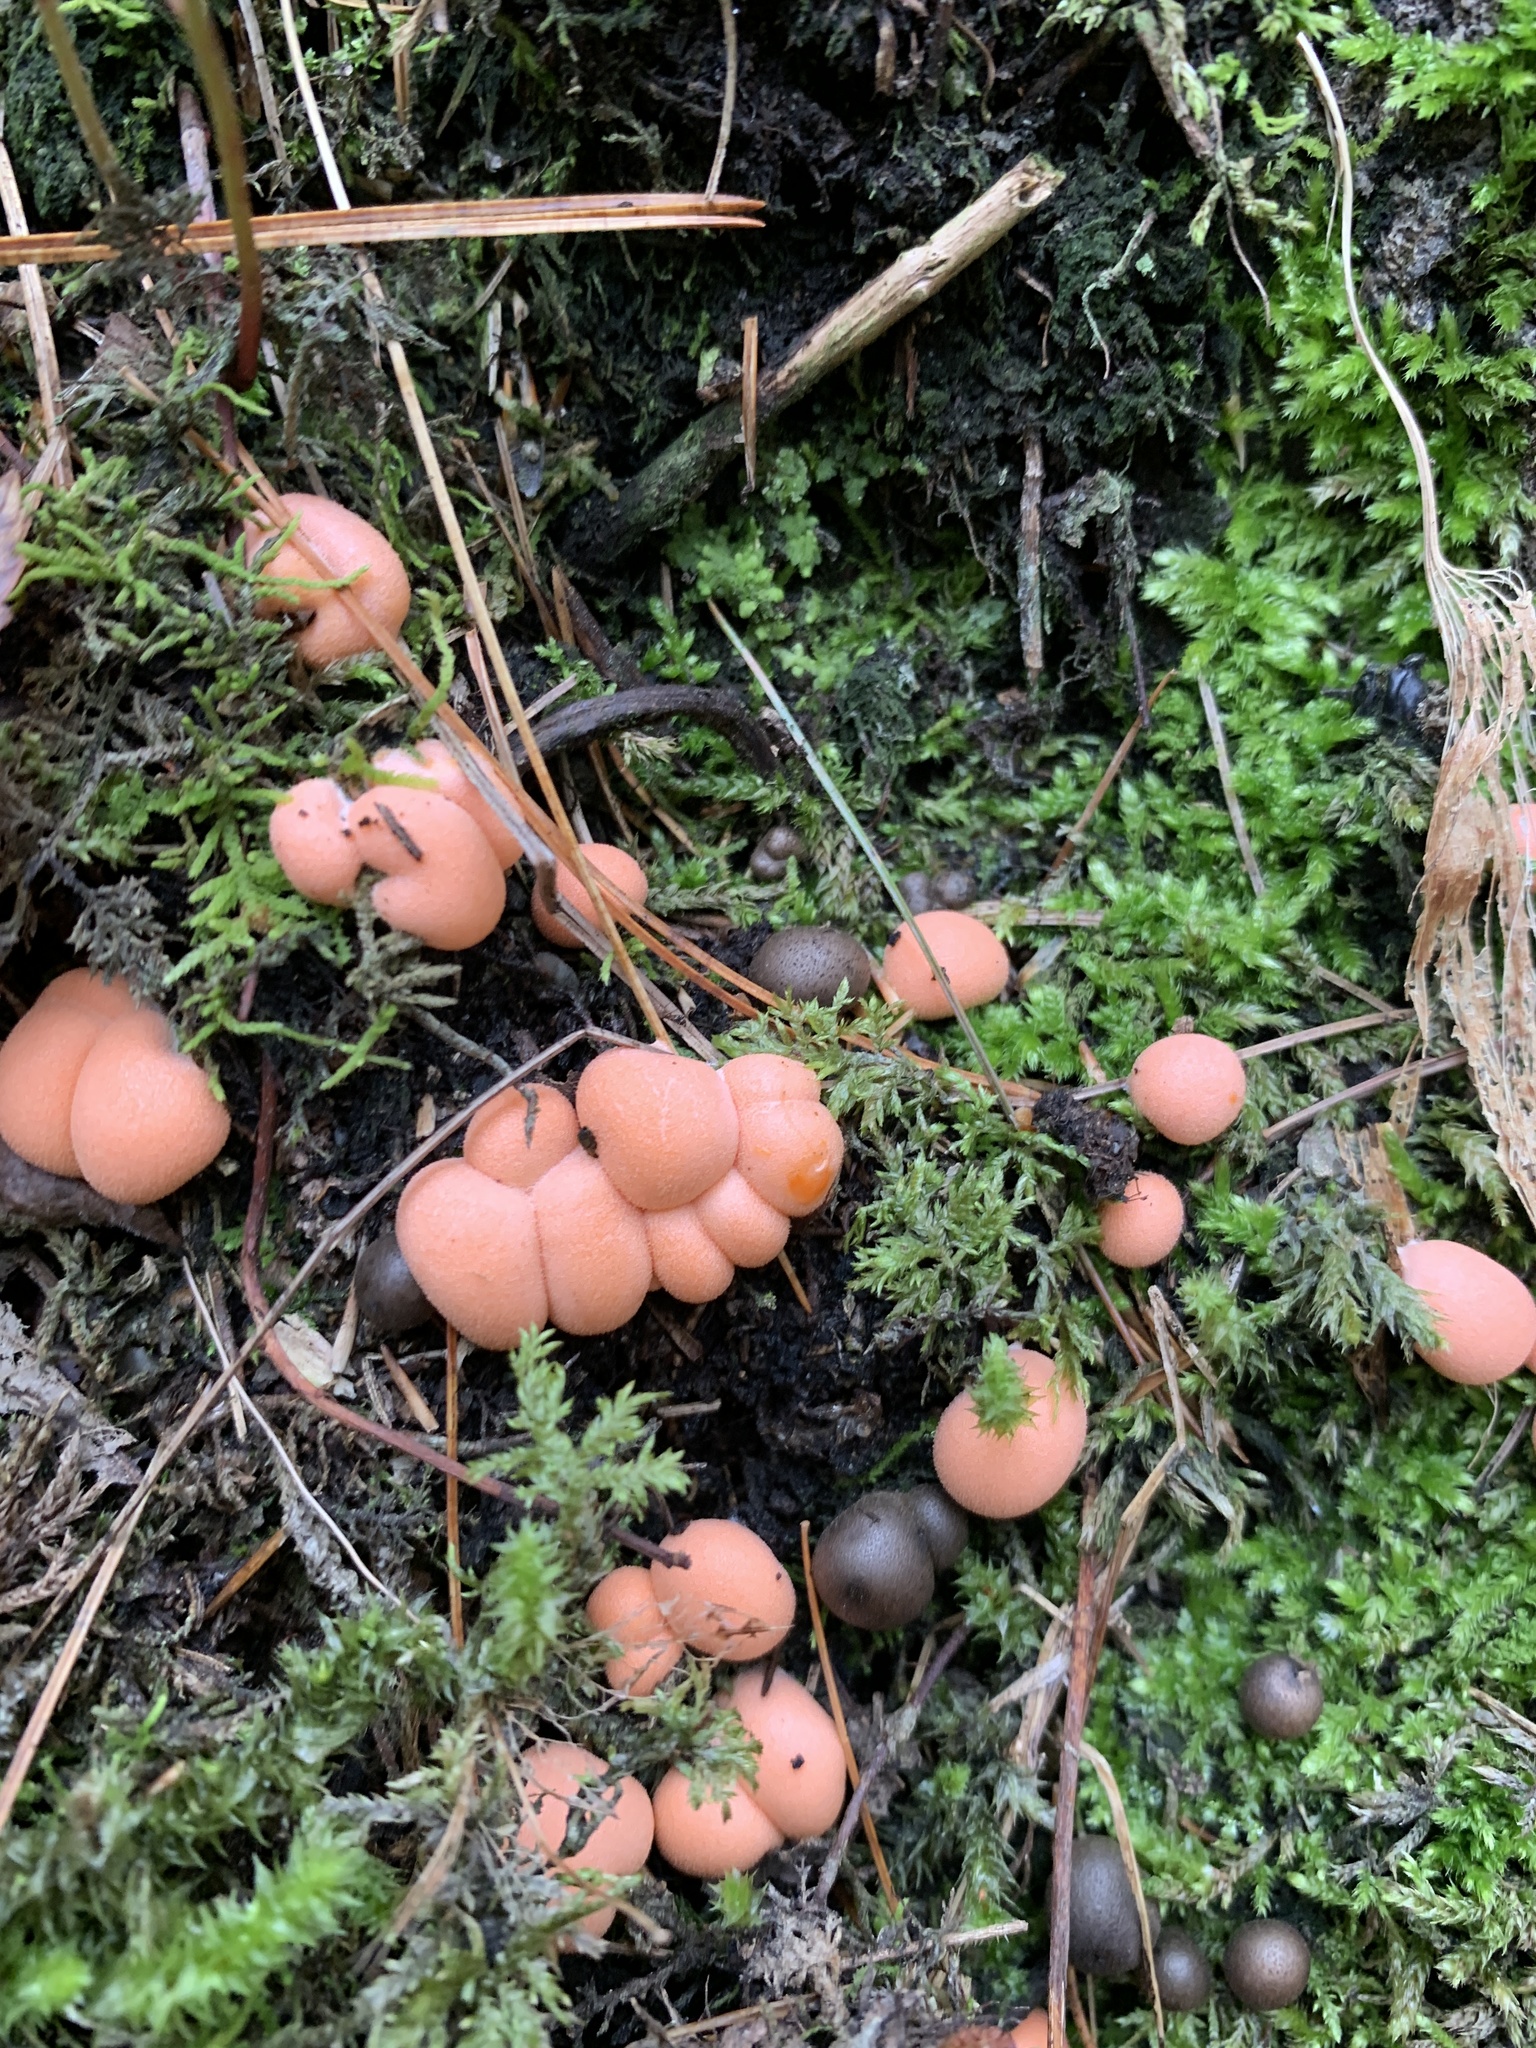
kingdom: Protozoa
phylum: Mycetozoa
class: Myxomycetes
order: Cribrariales
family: Tubiferaceae
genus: Lycogala
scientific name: Lycogala epidendrum
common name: Wolf's milk
